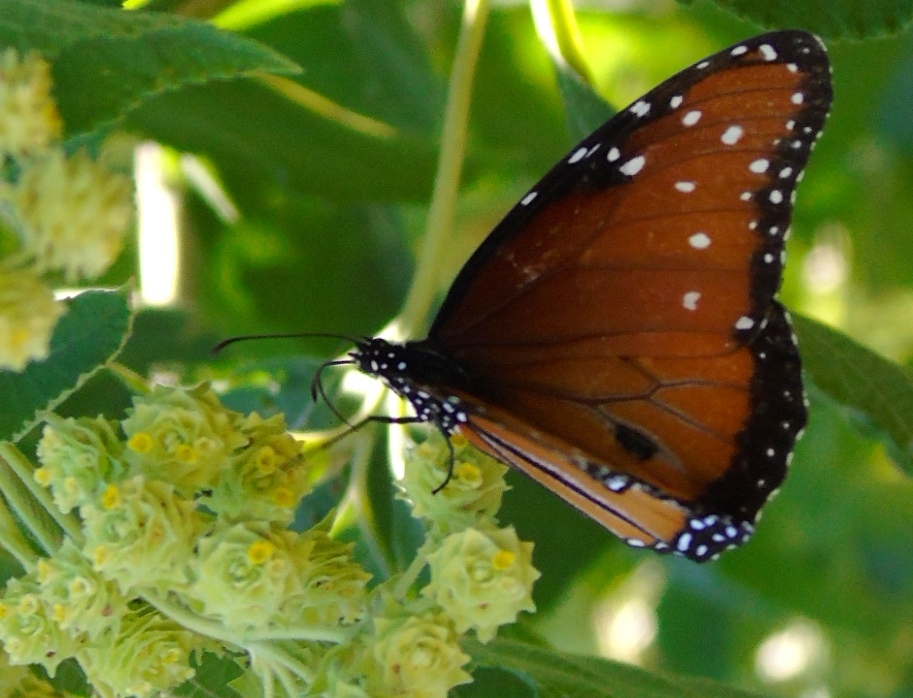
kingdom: Animalia
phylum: Arthropoda
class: Insecta
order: Lepidoptera
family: Nymphalidae
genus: Danaus
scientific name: Danaus gilippus
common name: Queen
